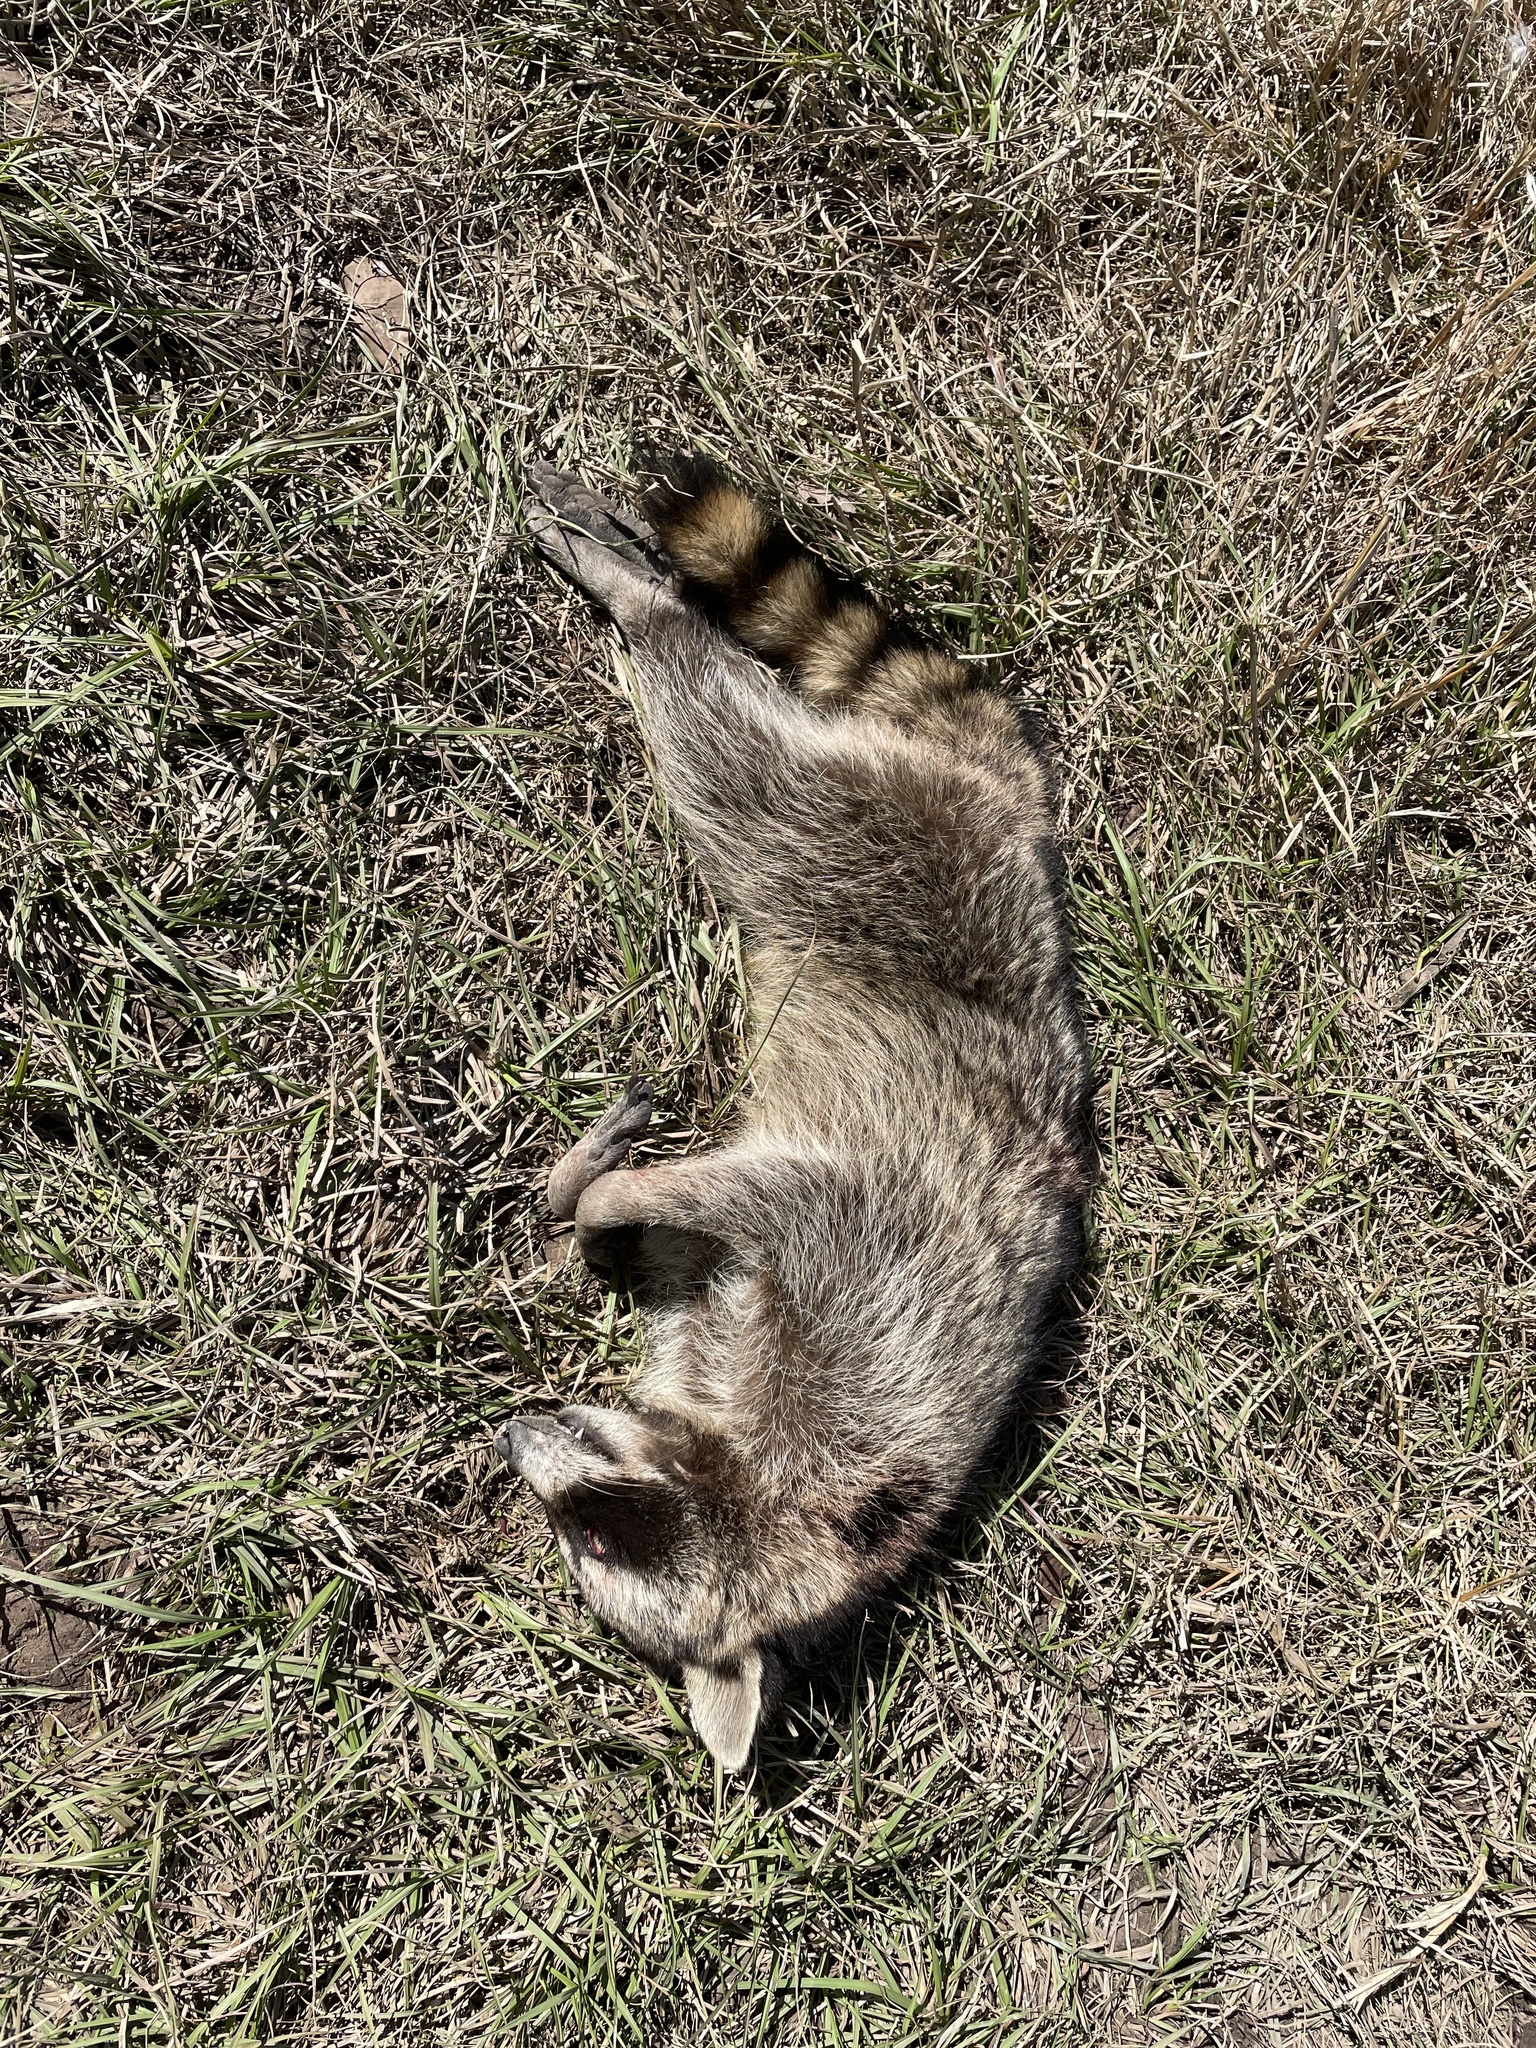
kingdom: Animalia
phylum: Chordata
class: Mammalia
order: Carnivora
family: Procyonidae
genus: Procyon
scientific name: Procyon lotor
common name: Raccoon
